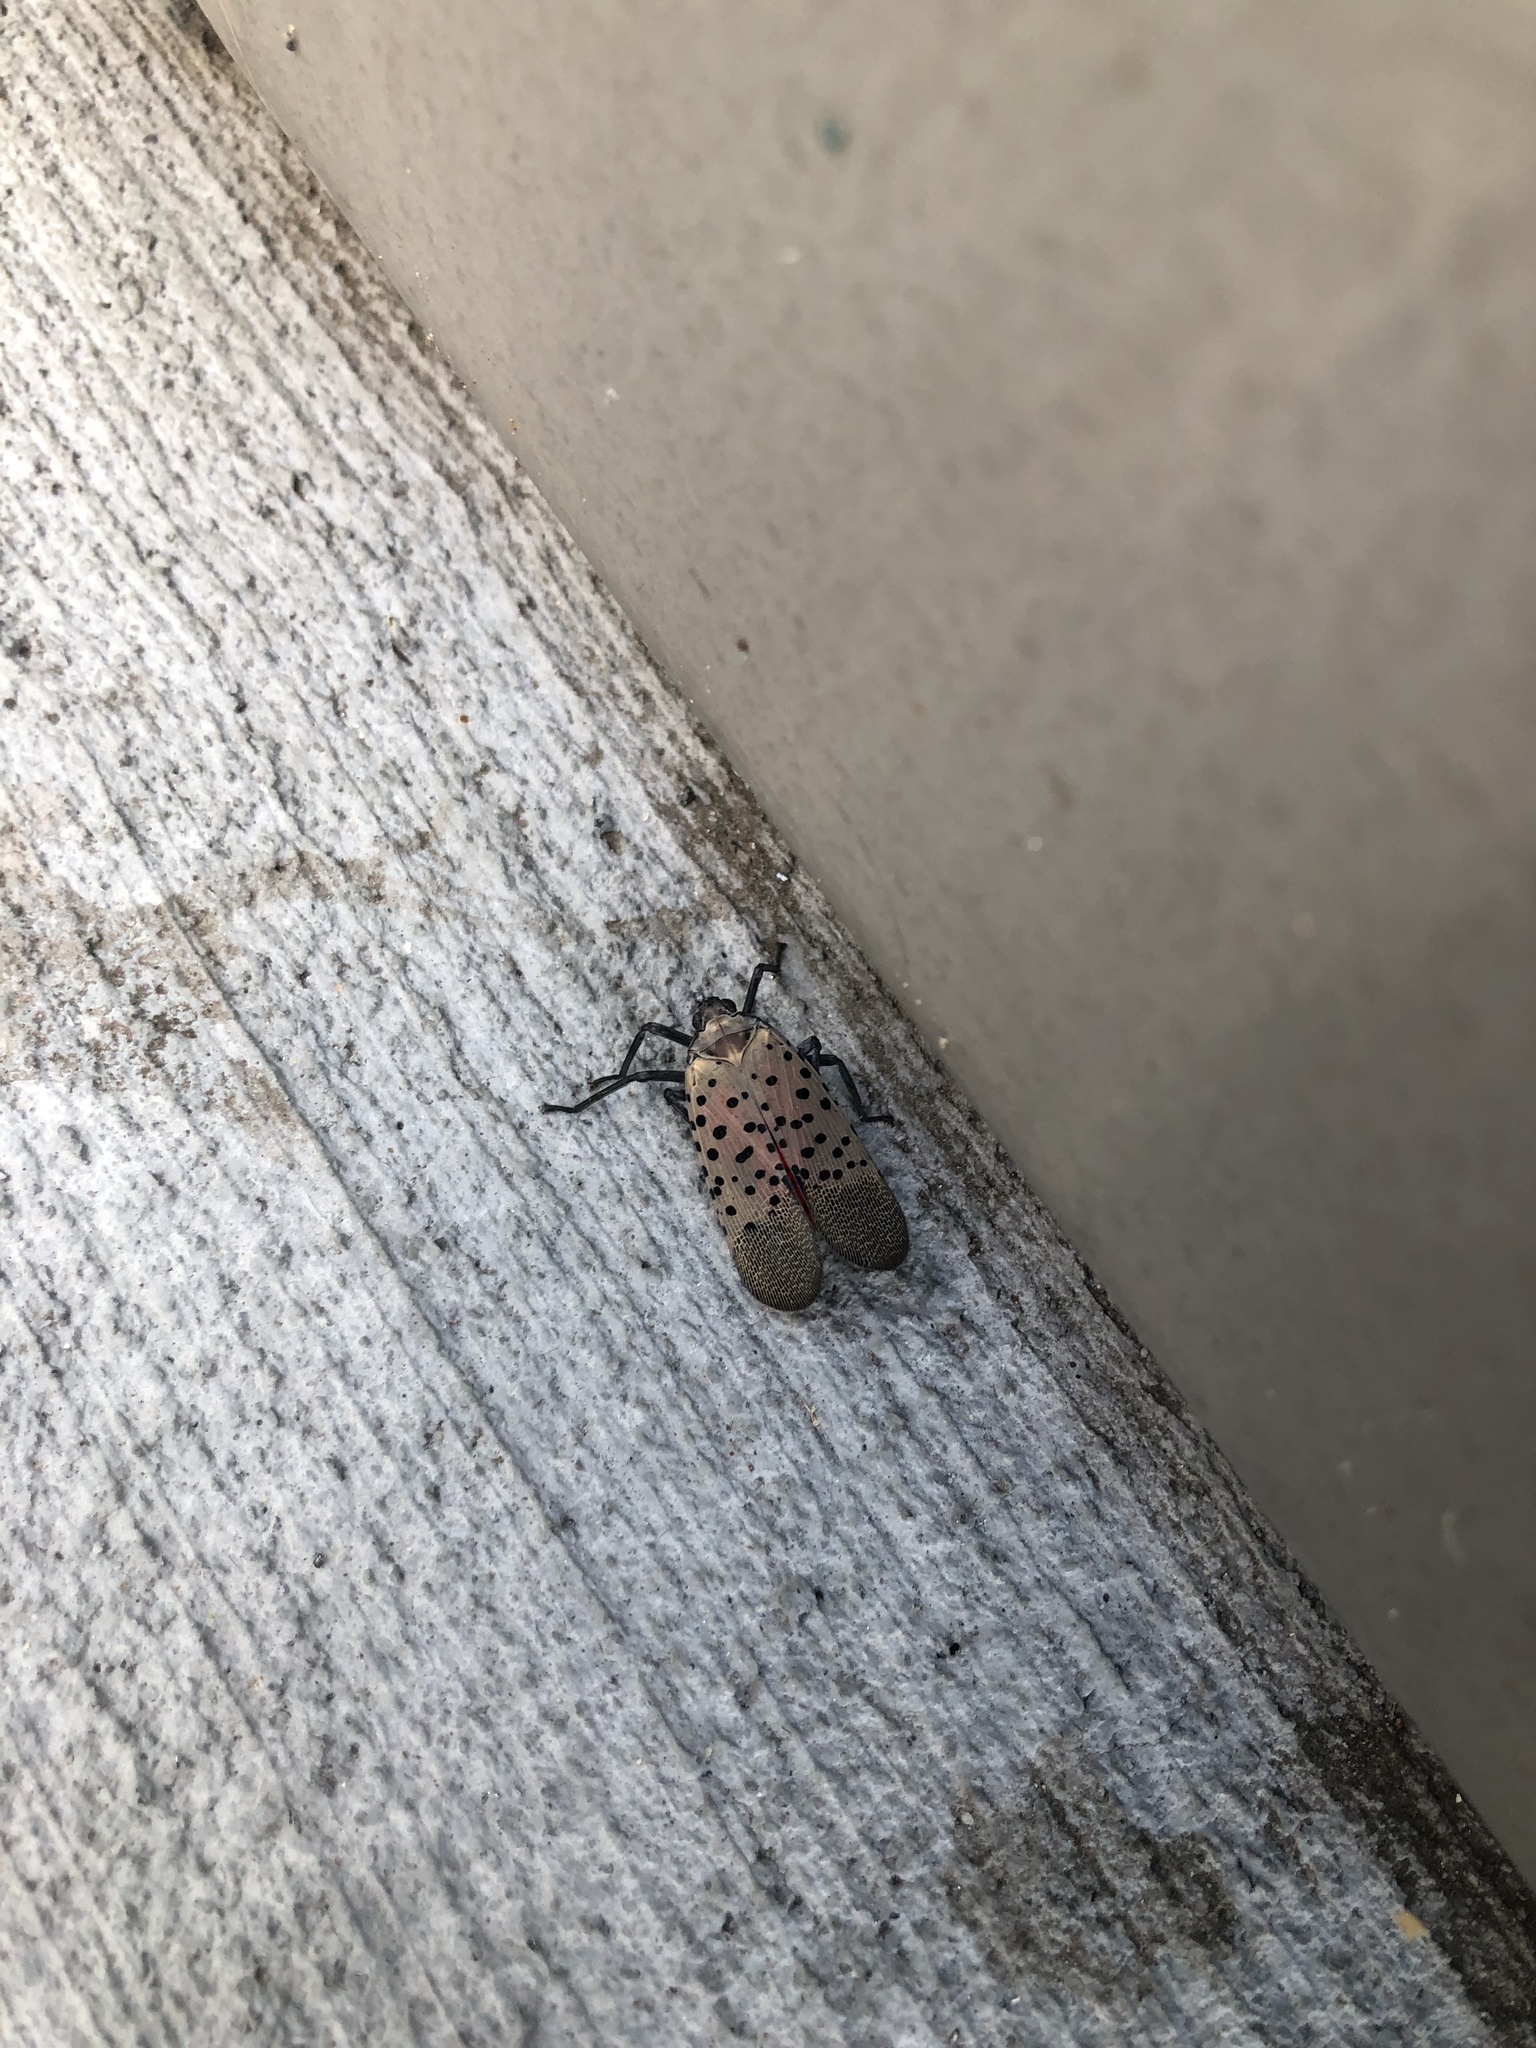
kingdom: Animalia
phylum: Arthropoda
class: Insecta
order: Hemiptera
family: Fulgoridae
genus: Lycorma
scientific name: Lycorma delicatula
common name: Spotted lanternfly
